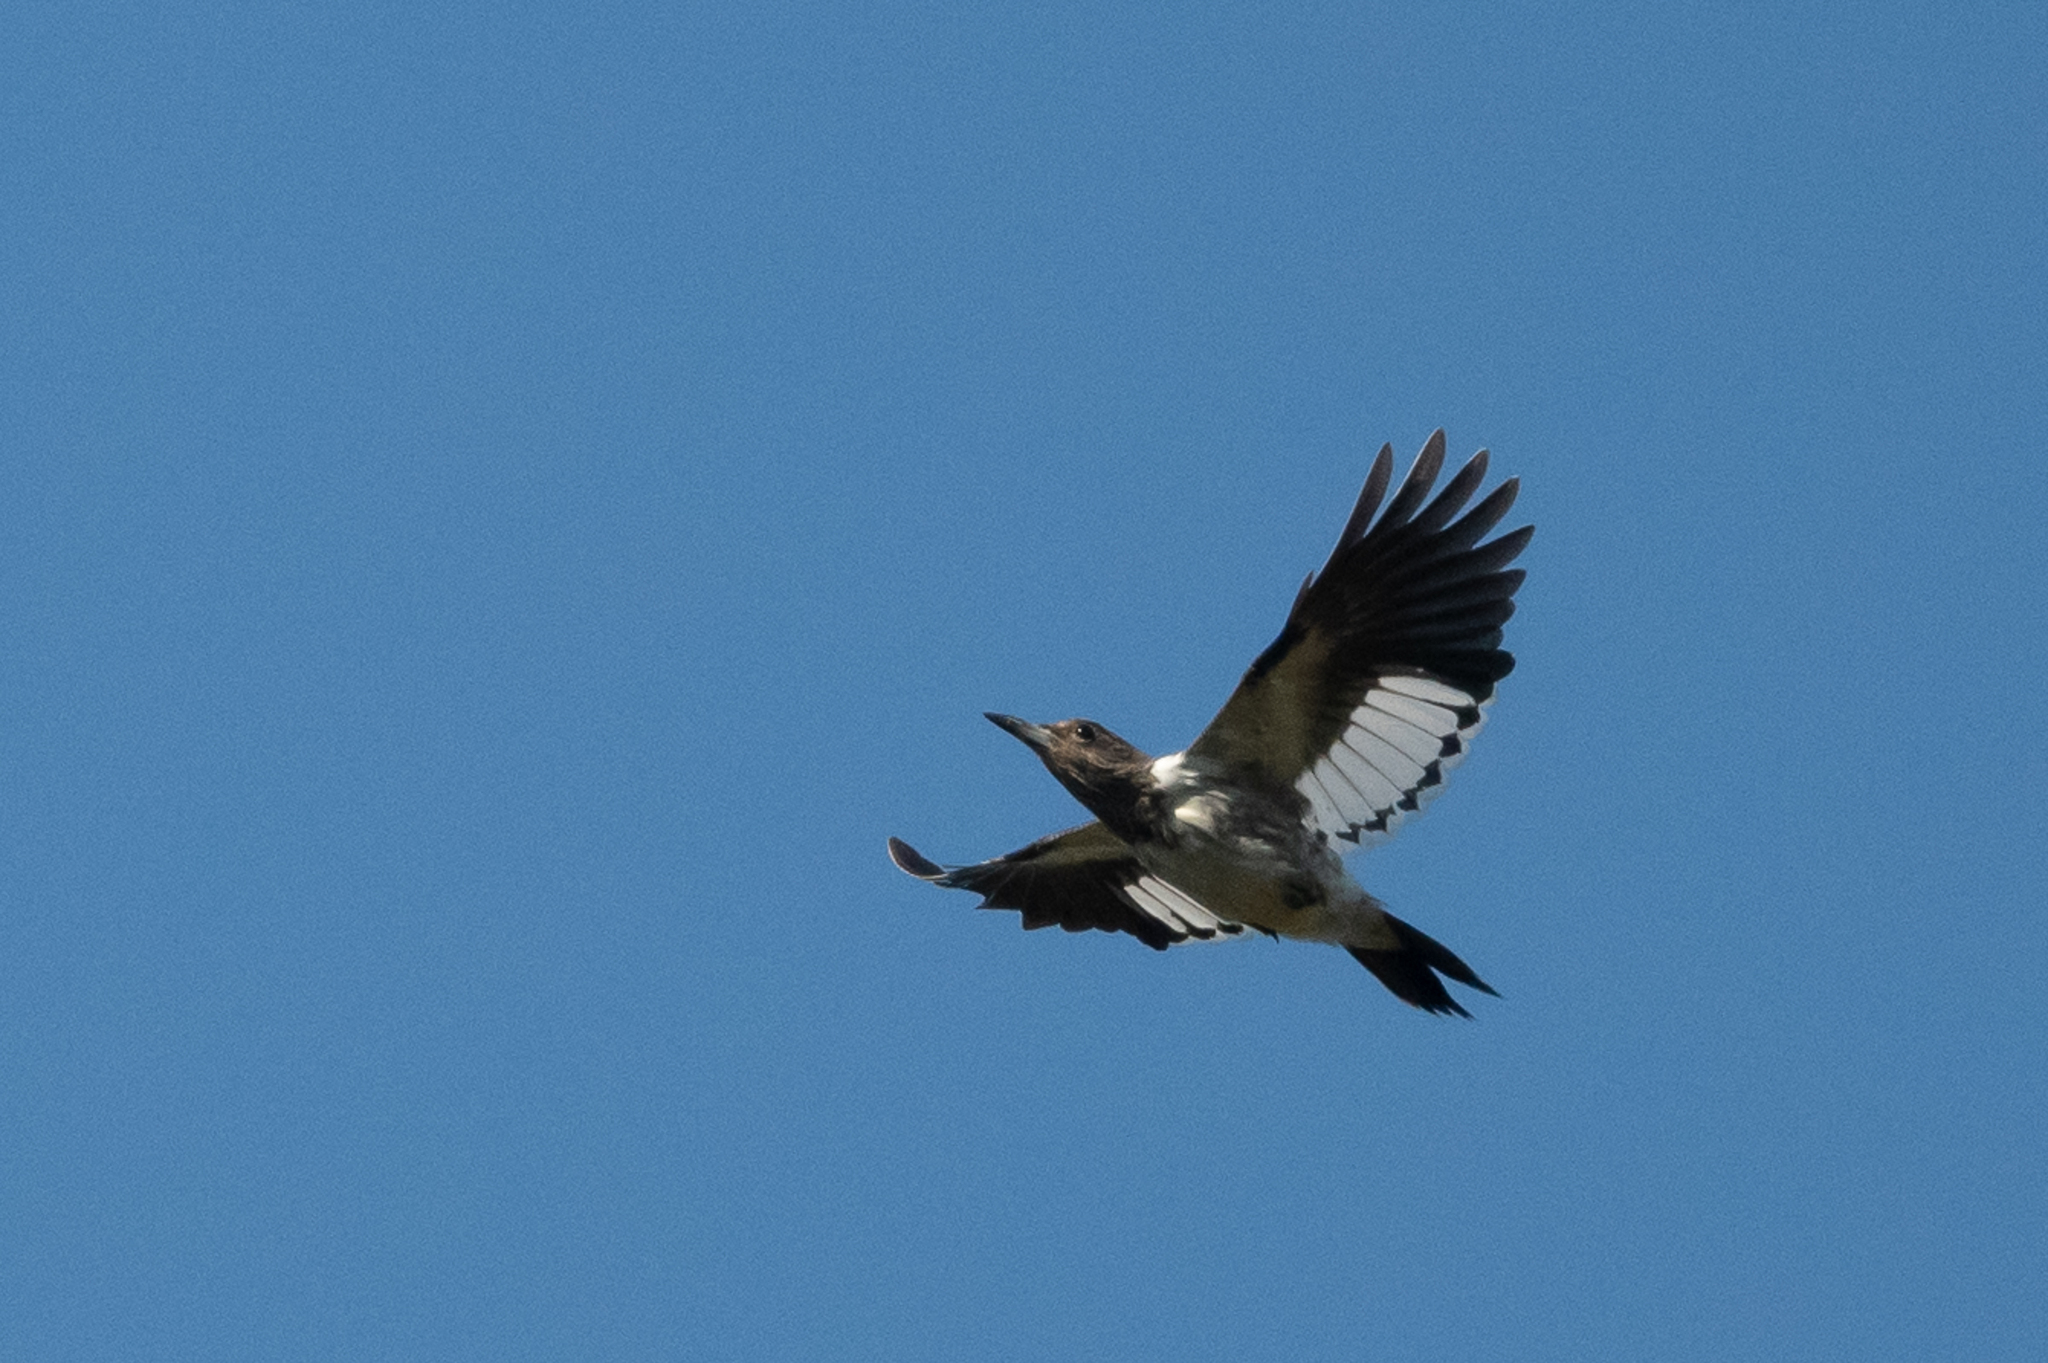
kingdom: Animalia
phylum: Chordata
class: Aves
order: Piciformes
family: Picidae
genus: Melanerpes
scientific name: Melanerpes erythrocephalus
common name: Red-headed woodpecker
